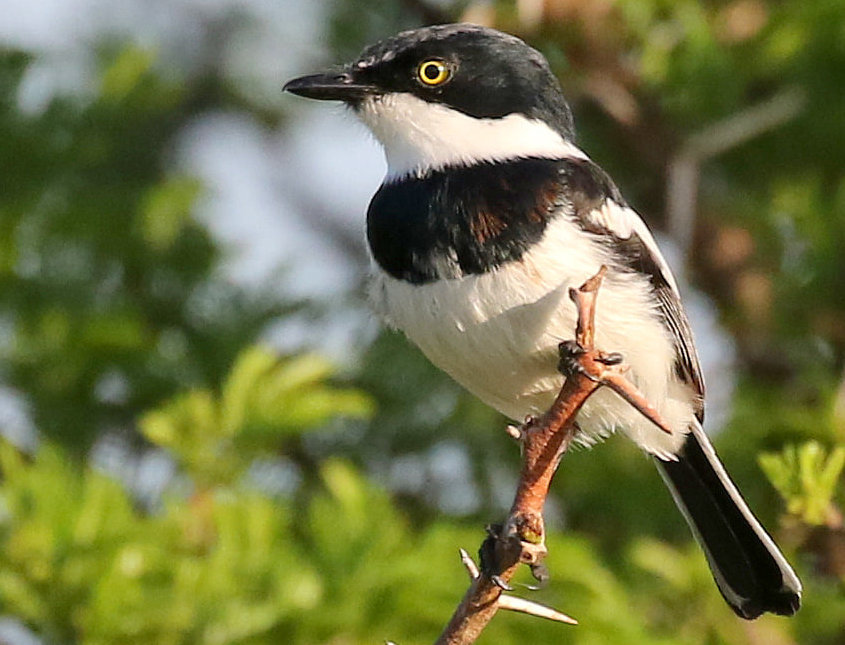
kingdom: Animalia
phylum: Chordata
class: Aves
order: Passeriformes
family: Platysteiridae
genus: Batis
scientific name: Batis molitor
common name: Chinspot batis
